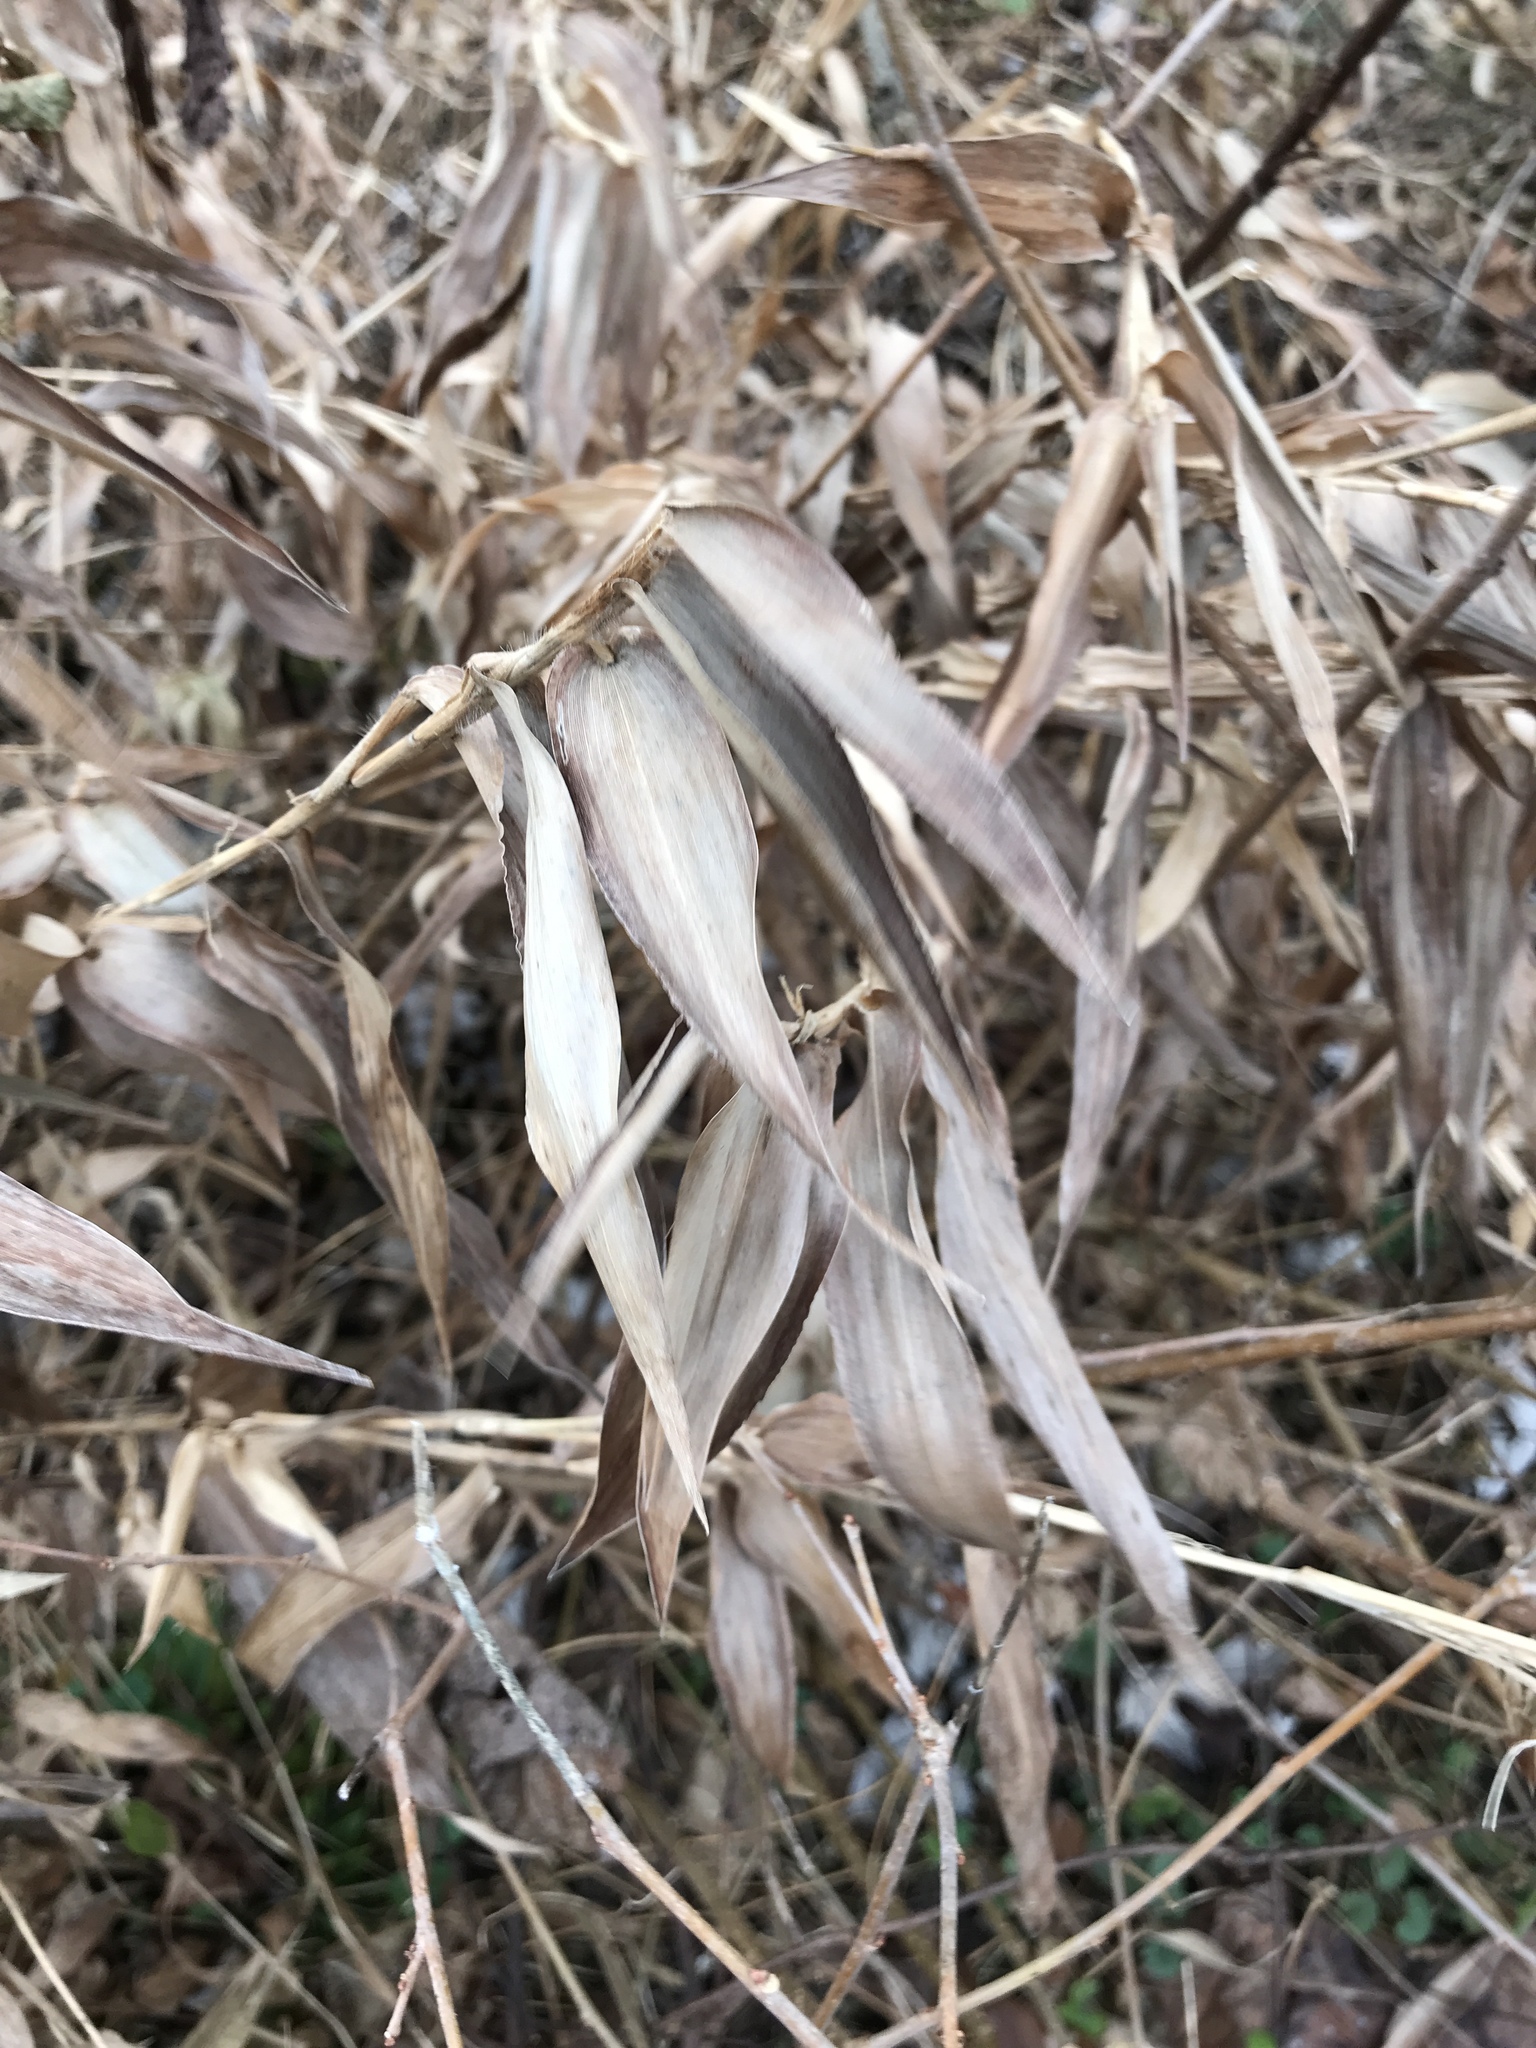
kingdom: Plantae
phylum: Tracheophyta
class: Liliopsida
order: Poales
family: Poaceae
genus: Dichanthelium
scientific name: Dichanthelium clandestinum
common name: Deer-tongue grass
